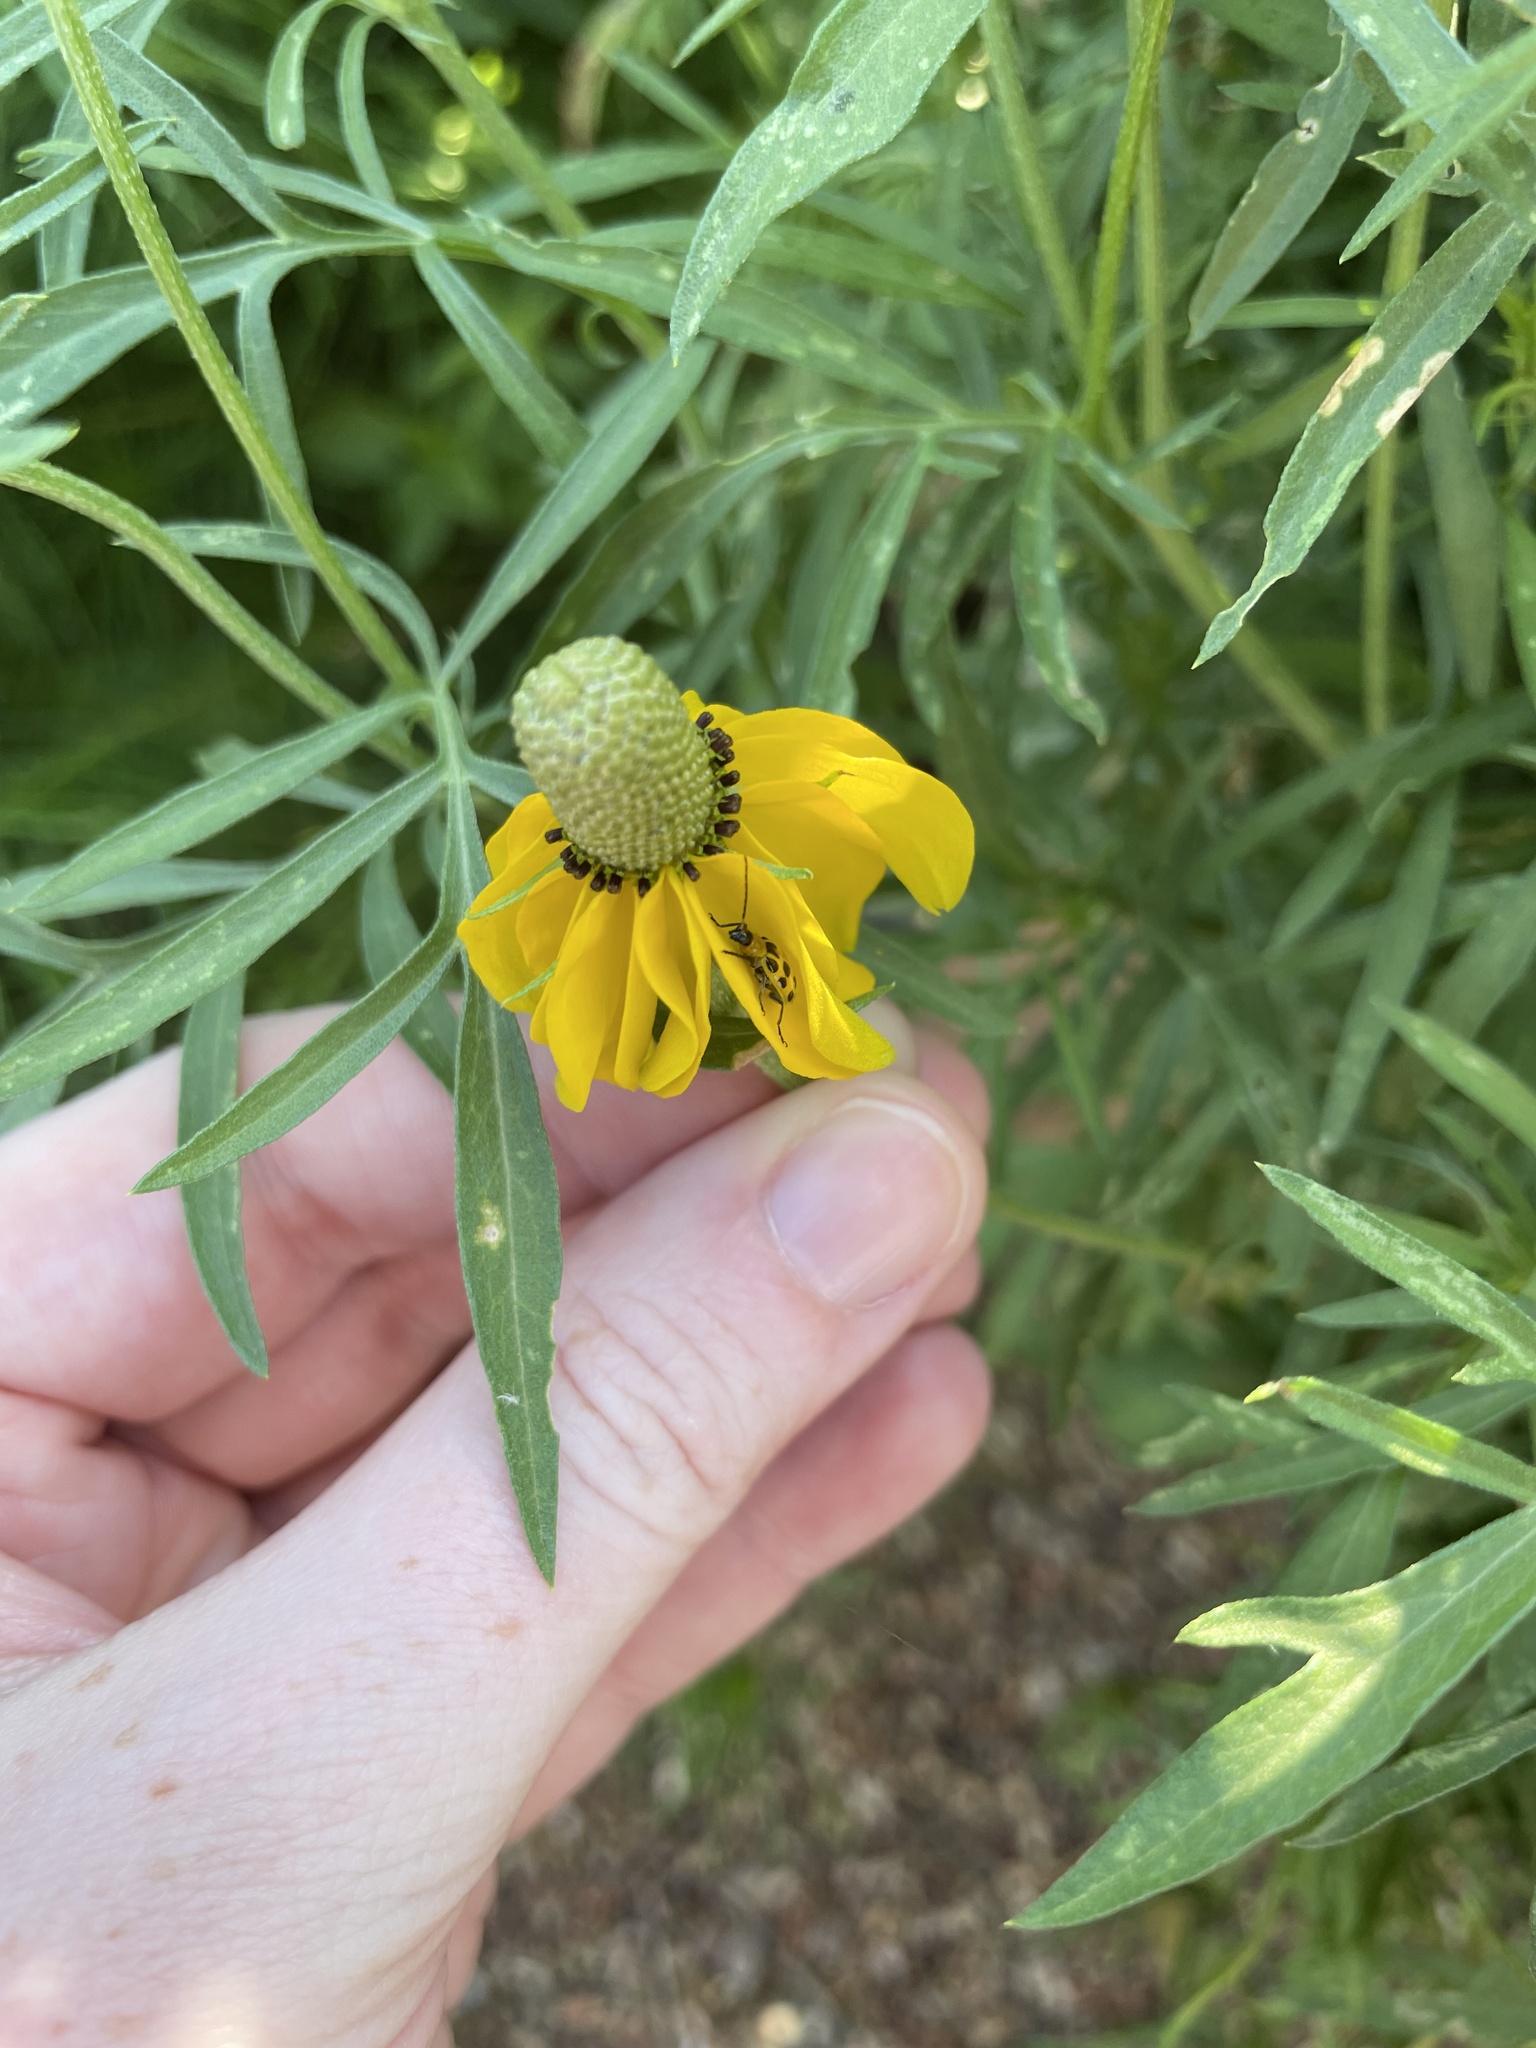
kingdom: Animalia
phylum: Arthropoda
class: Insecta
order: Coleoptera
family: Chrysomelidae
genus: Diabrotica
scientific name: Diabrotica undecimpunctata
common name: Spotted cucumber beetle
